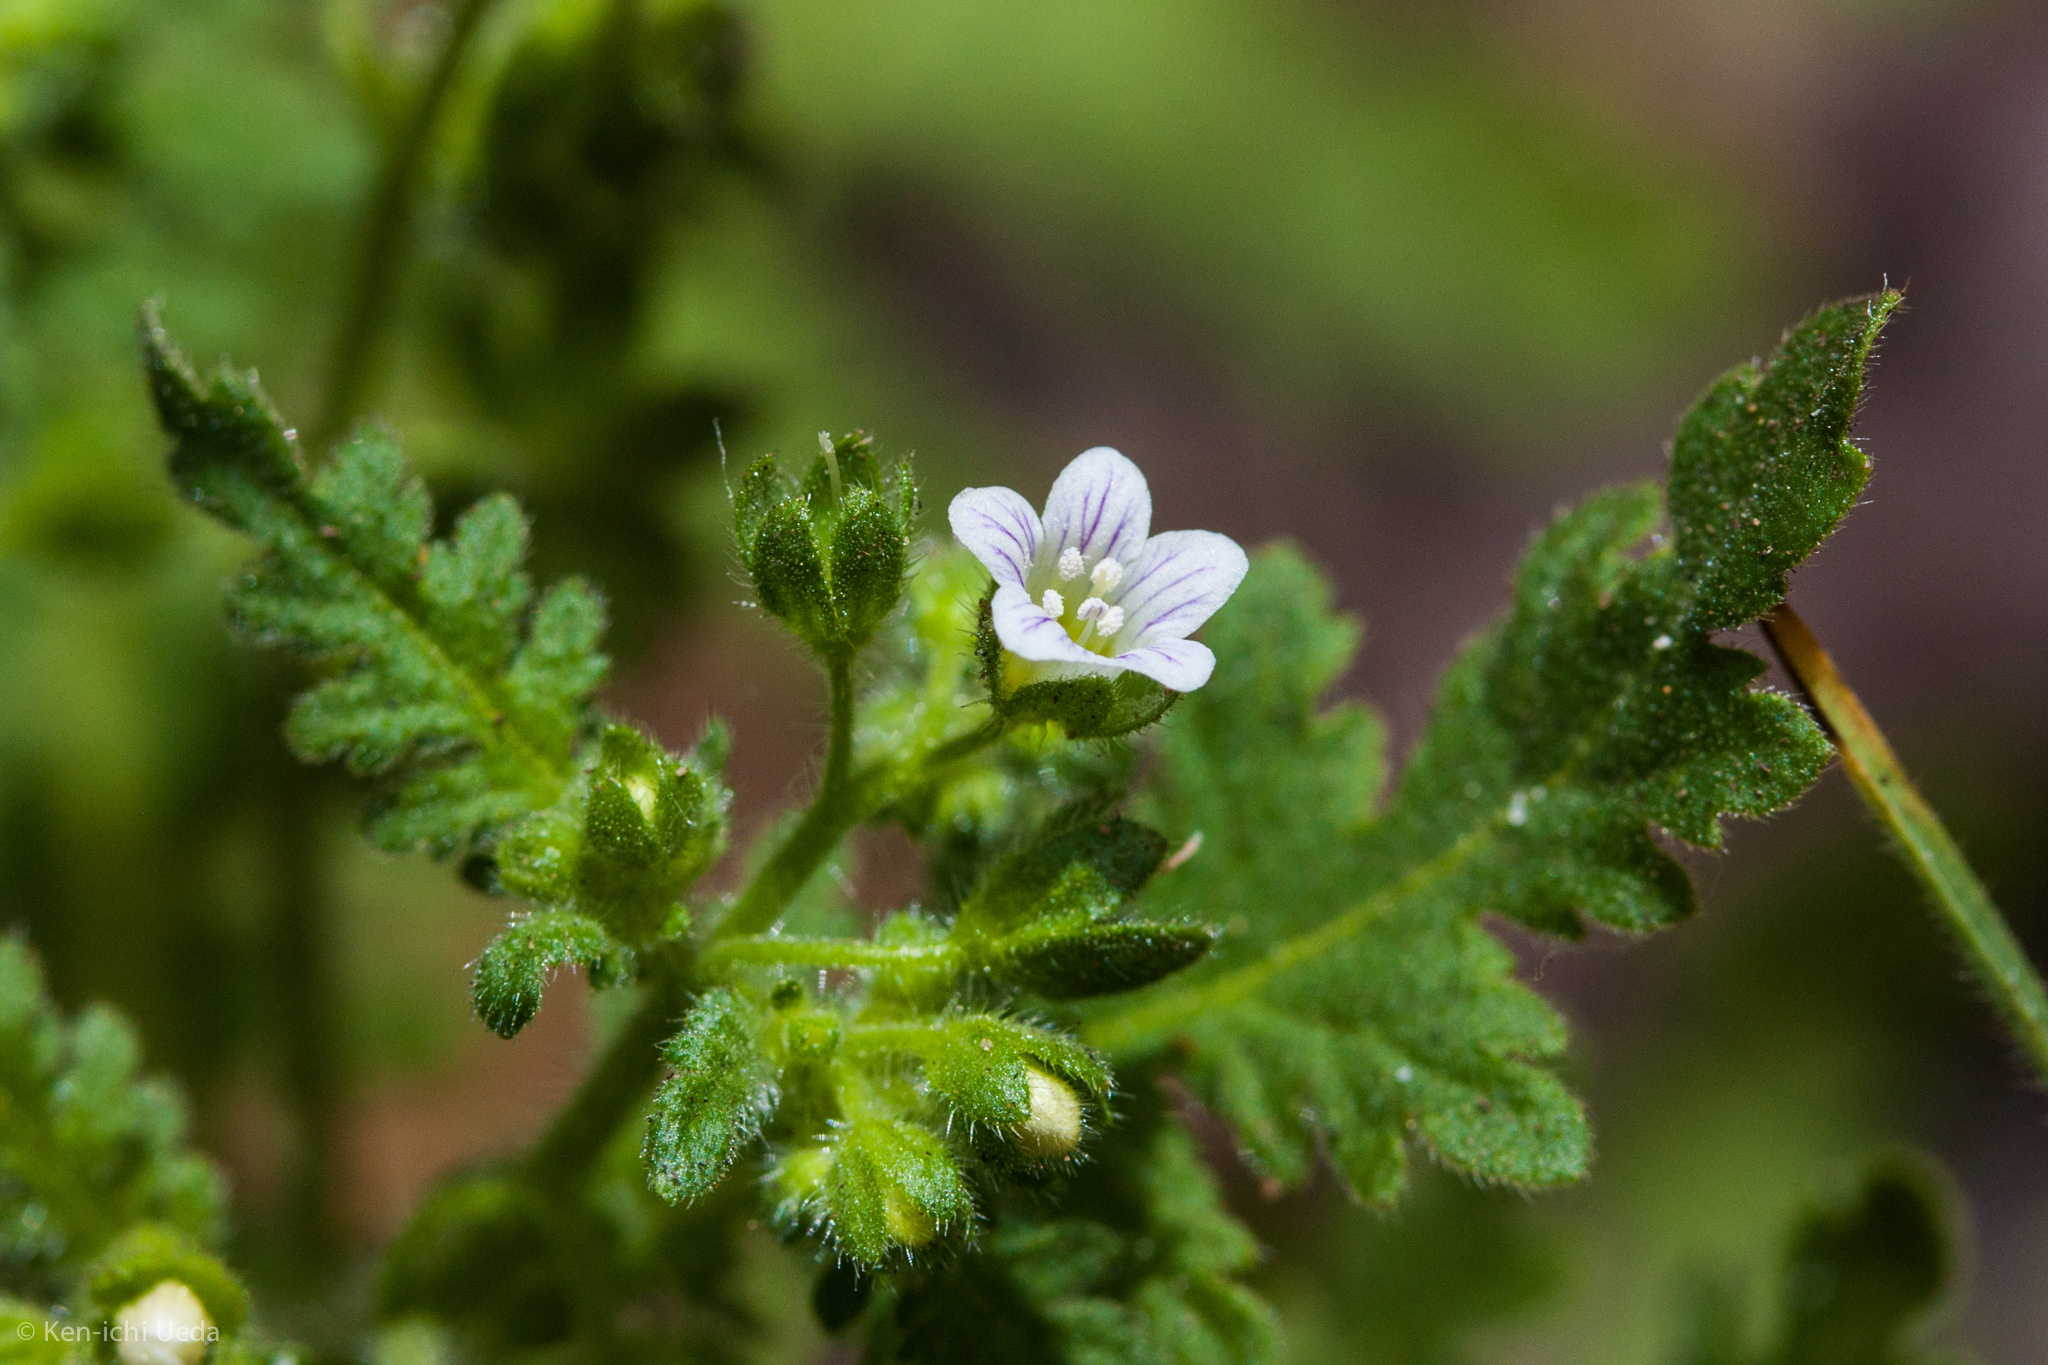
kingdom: Plantae
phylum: Tracheophyta
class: Magnoliopsida
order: Boraginales
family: Hydrophyllaceae
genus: Eucrypta
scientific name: Eucrypta chrysanthemifolia
